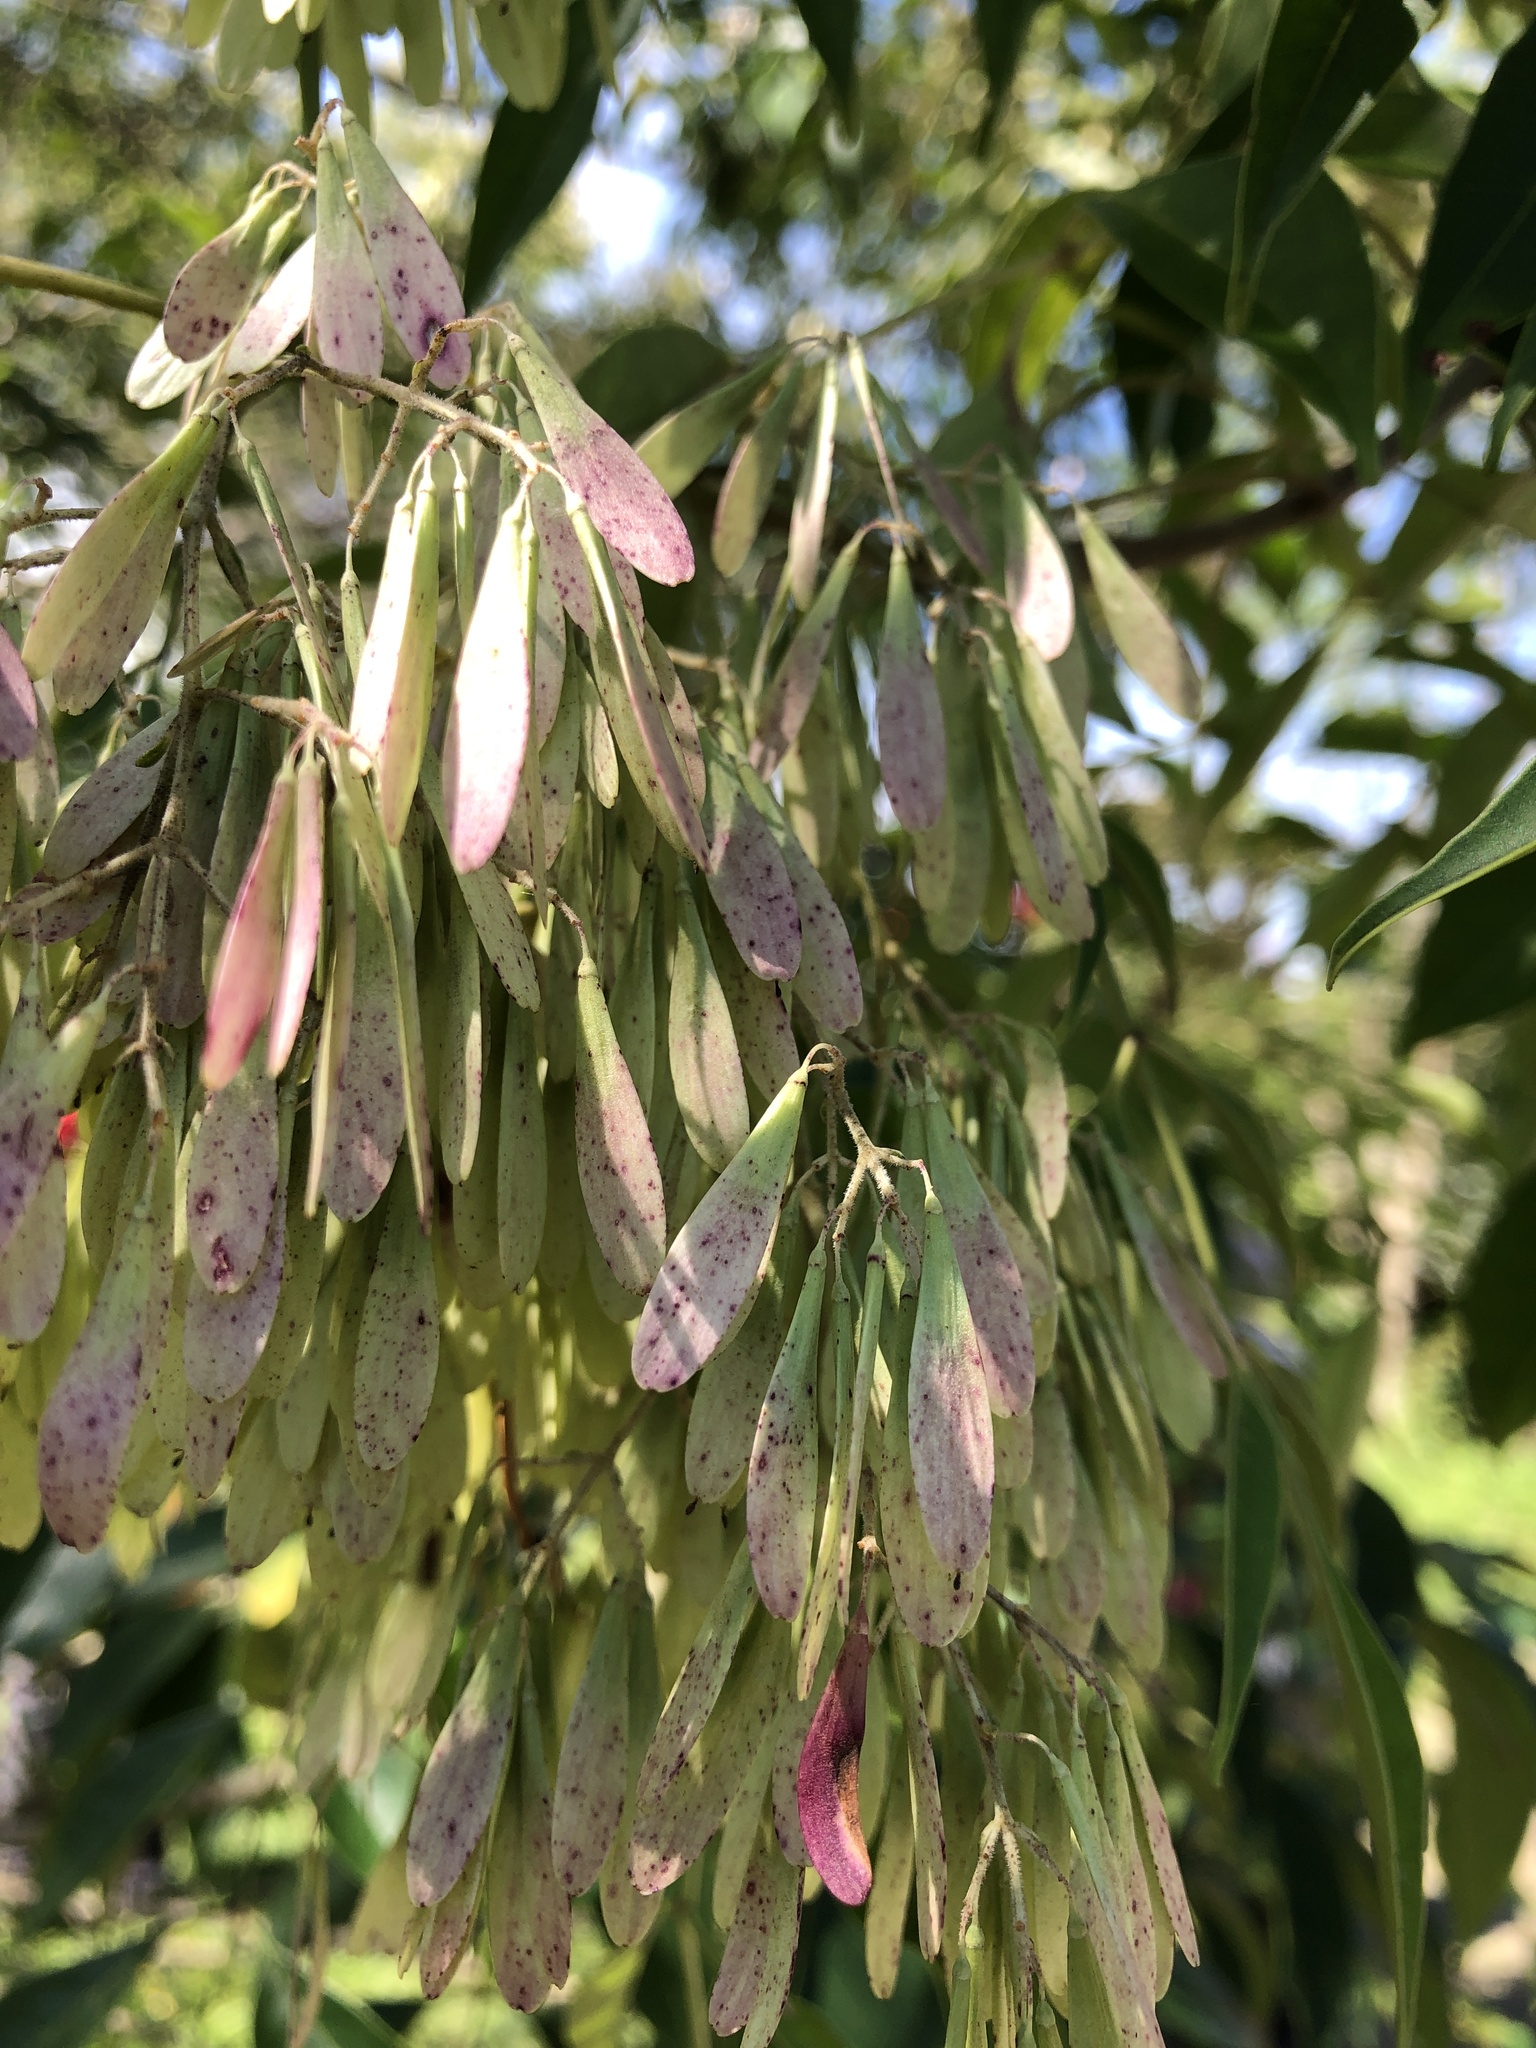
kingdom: Plantae
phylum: Tracheophyta
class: Magnoliopsida
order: Lamiales
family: Oleaceae
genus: Fraxinus
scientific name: Fraxinus griffithii
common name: Himalayan ash
